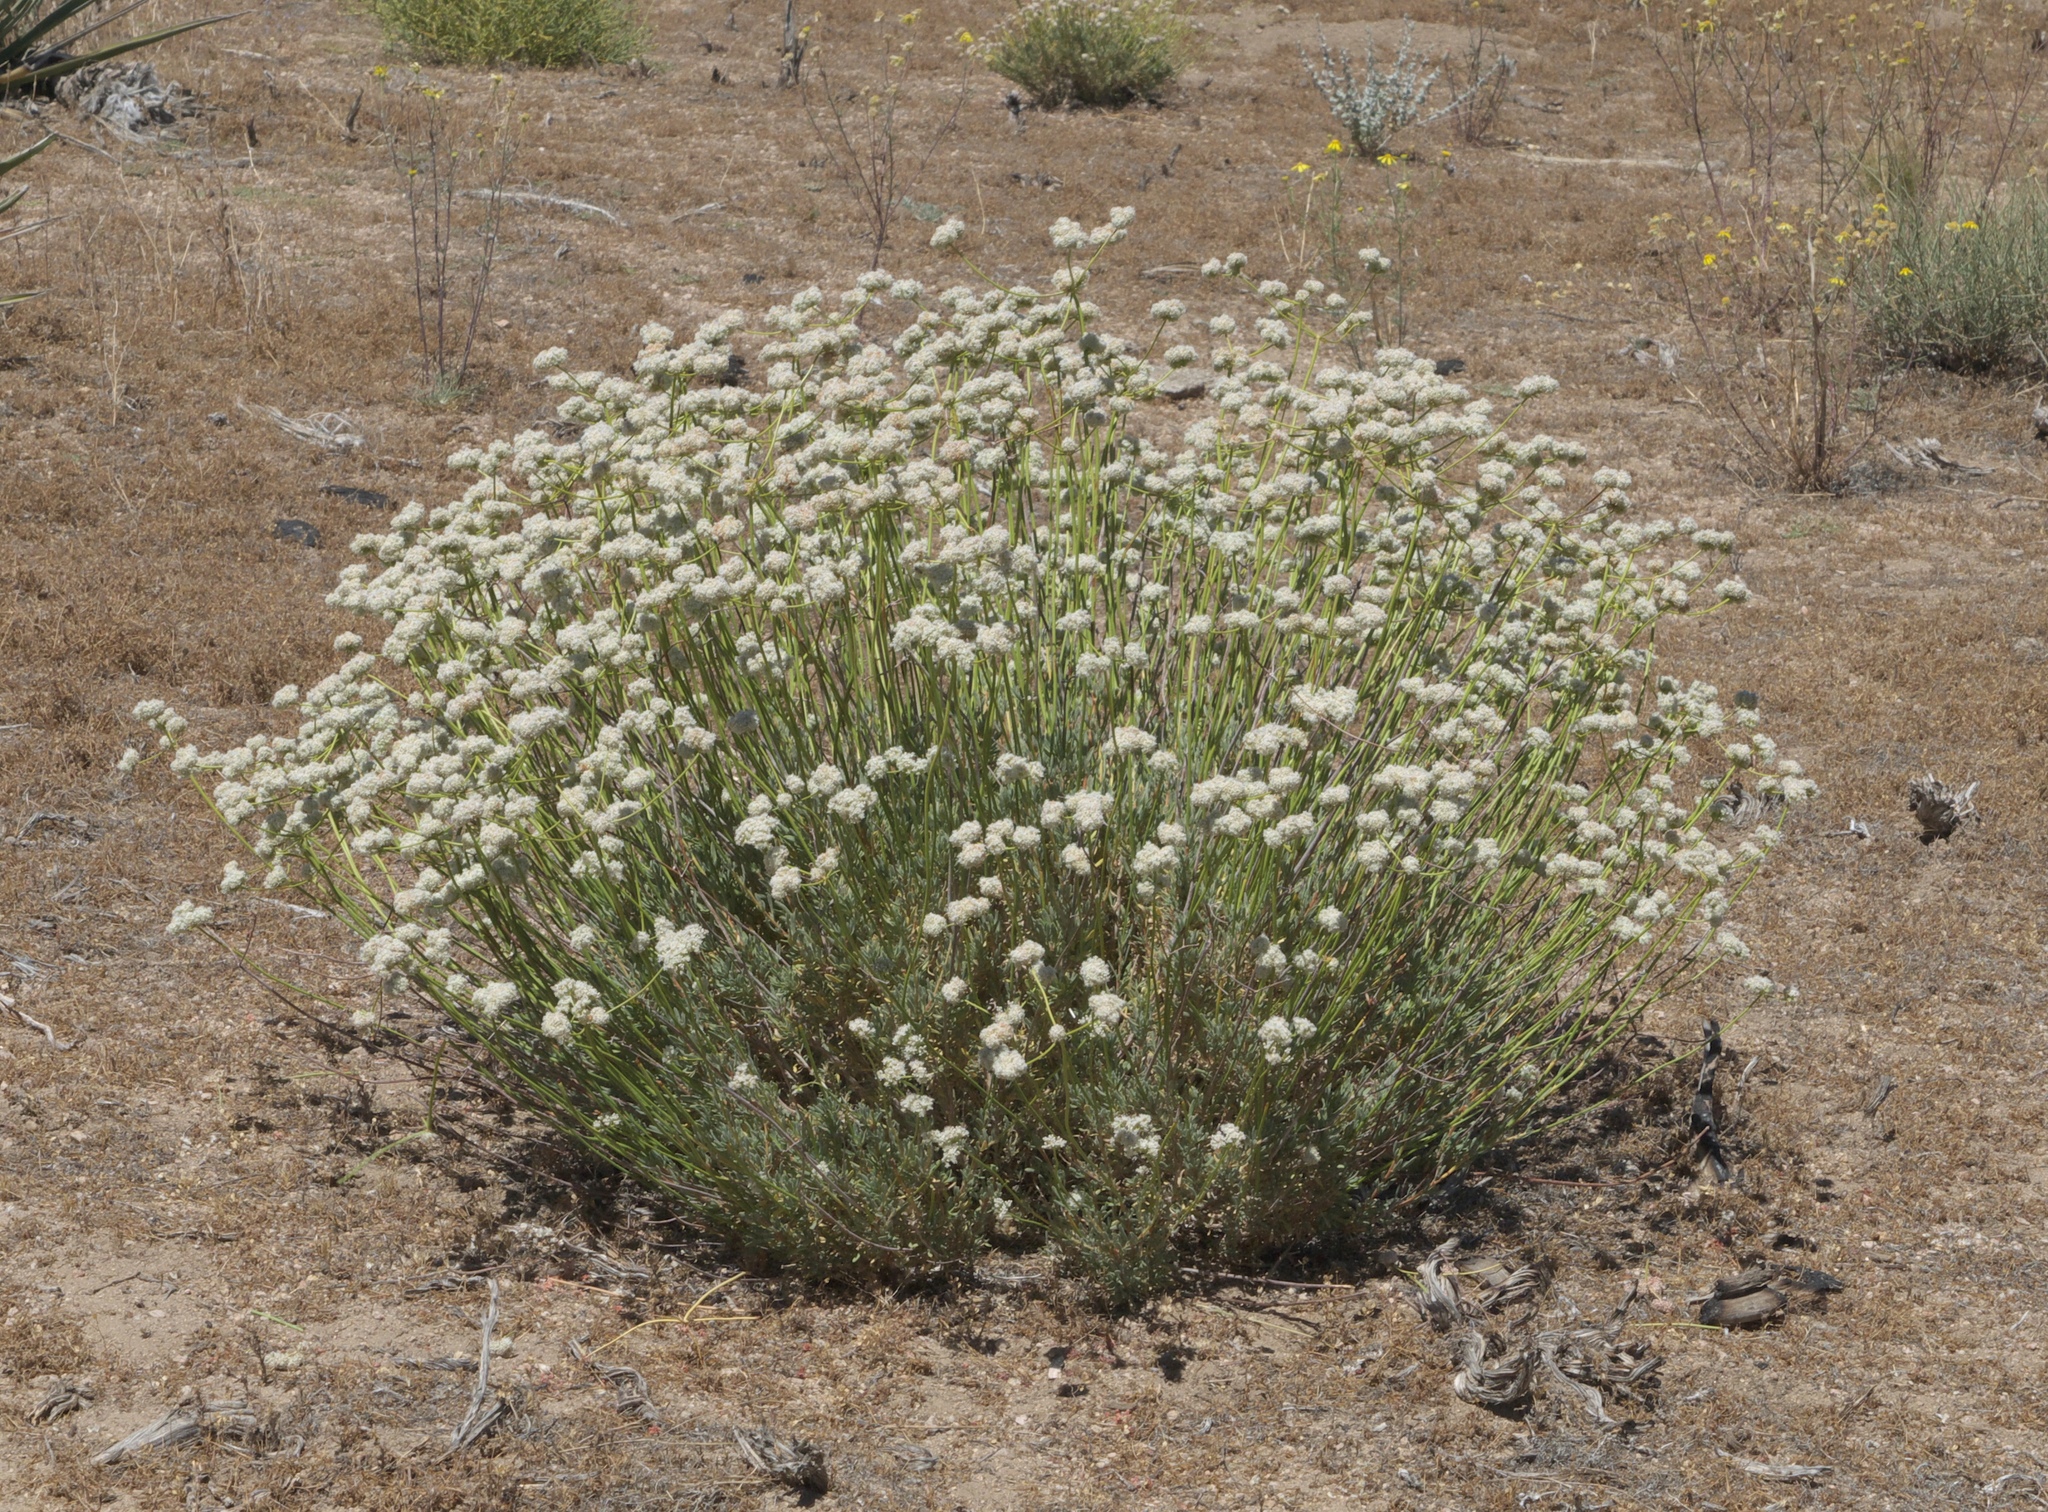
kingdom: Plantae
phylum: Tracheophyta
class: Magnoliopsida
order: Caryophyllales
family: Polygonaceae
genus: Eriogonum
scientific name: Eriogonum fasciculatum
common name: California wild buckwheat
